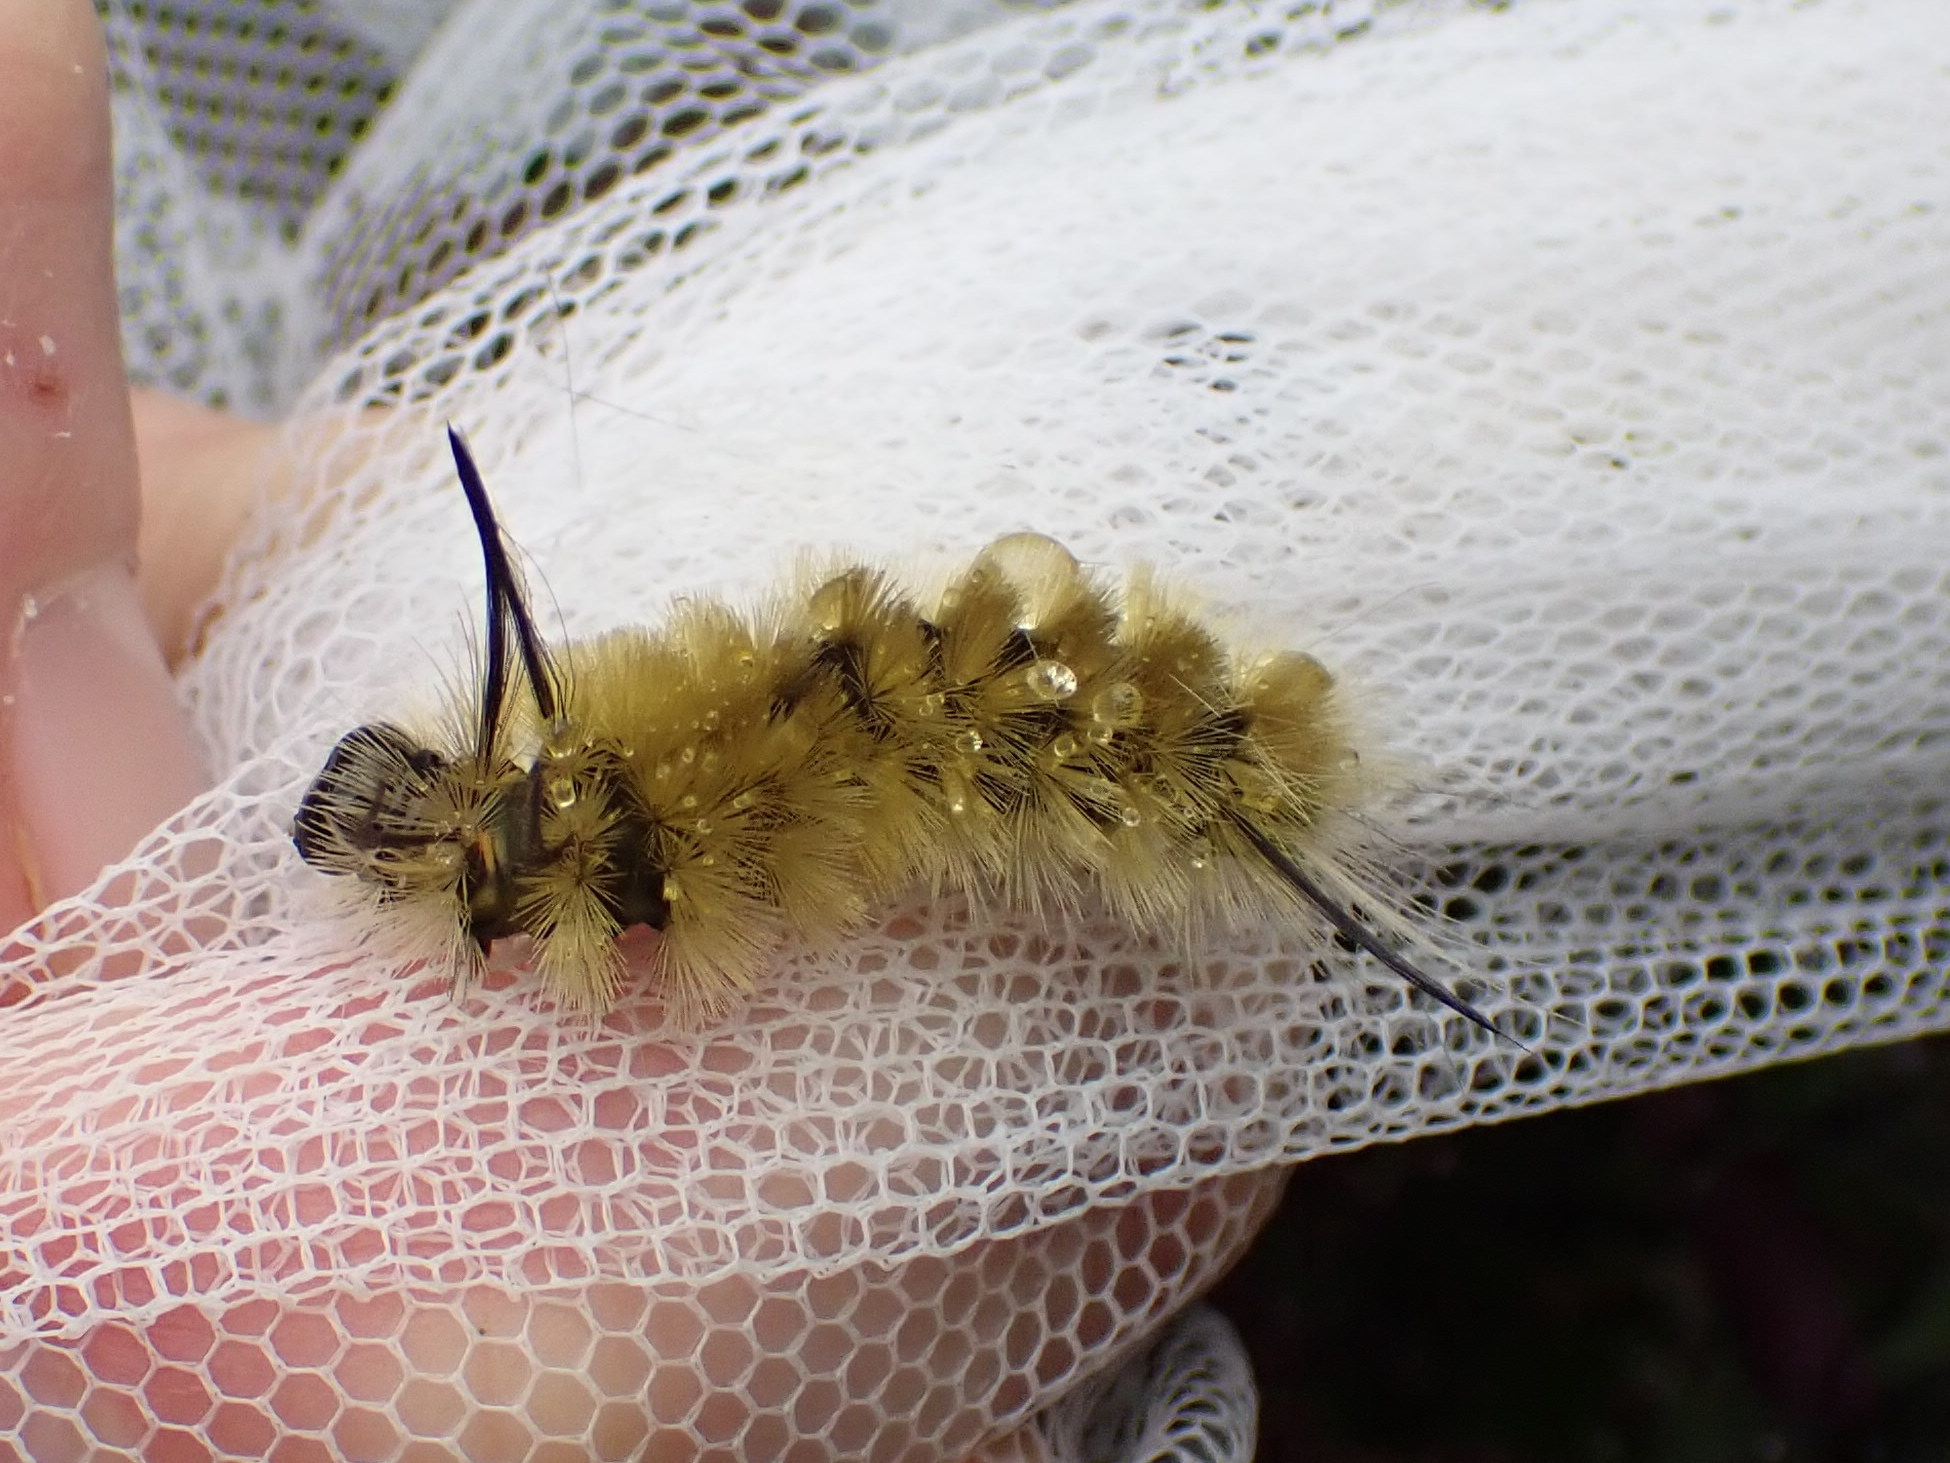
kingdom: Animalia
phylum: Arthropoda
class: Insecta
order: Lepidoptera
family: Erebidae
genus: Halysidota
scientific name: Halysidota tessellaris
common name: Banded tussock moth
